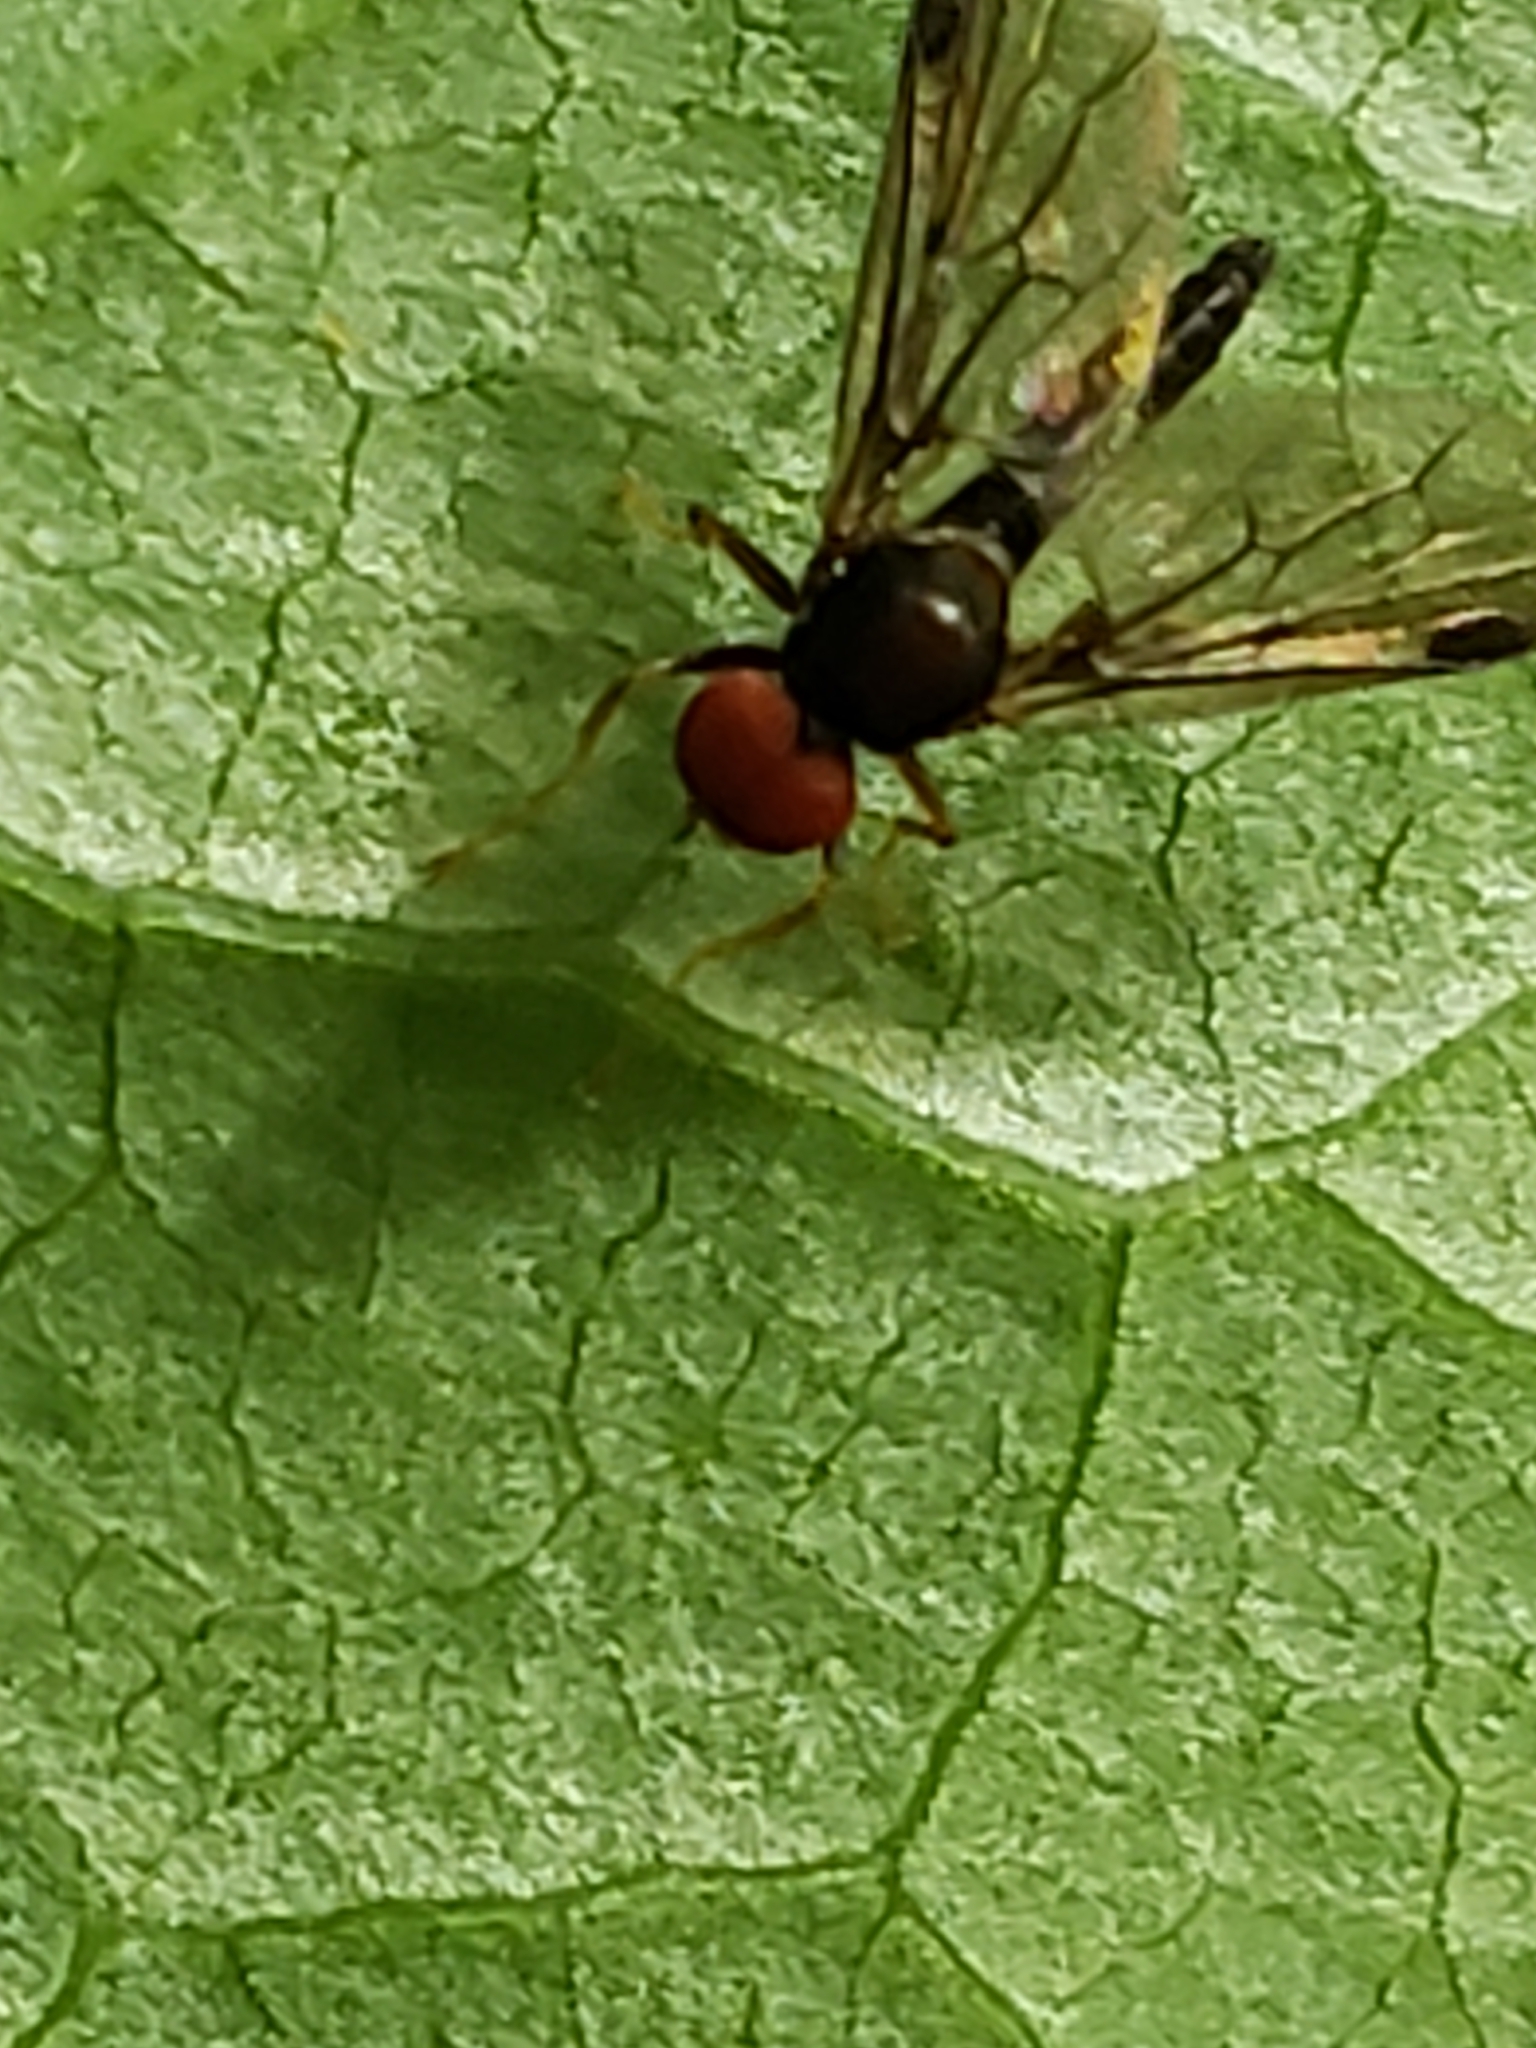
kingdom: Animalia
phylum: Arthropoda
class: Insecta
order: Diptera
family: Hybotidae
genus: Syneches
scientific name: Syneches thoracicus
